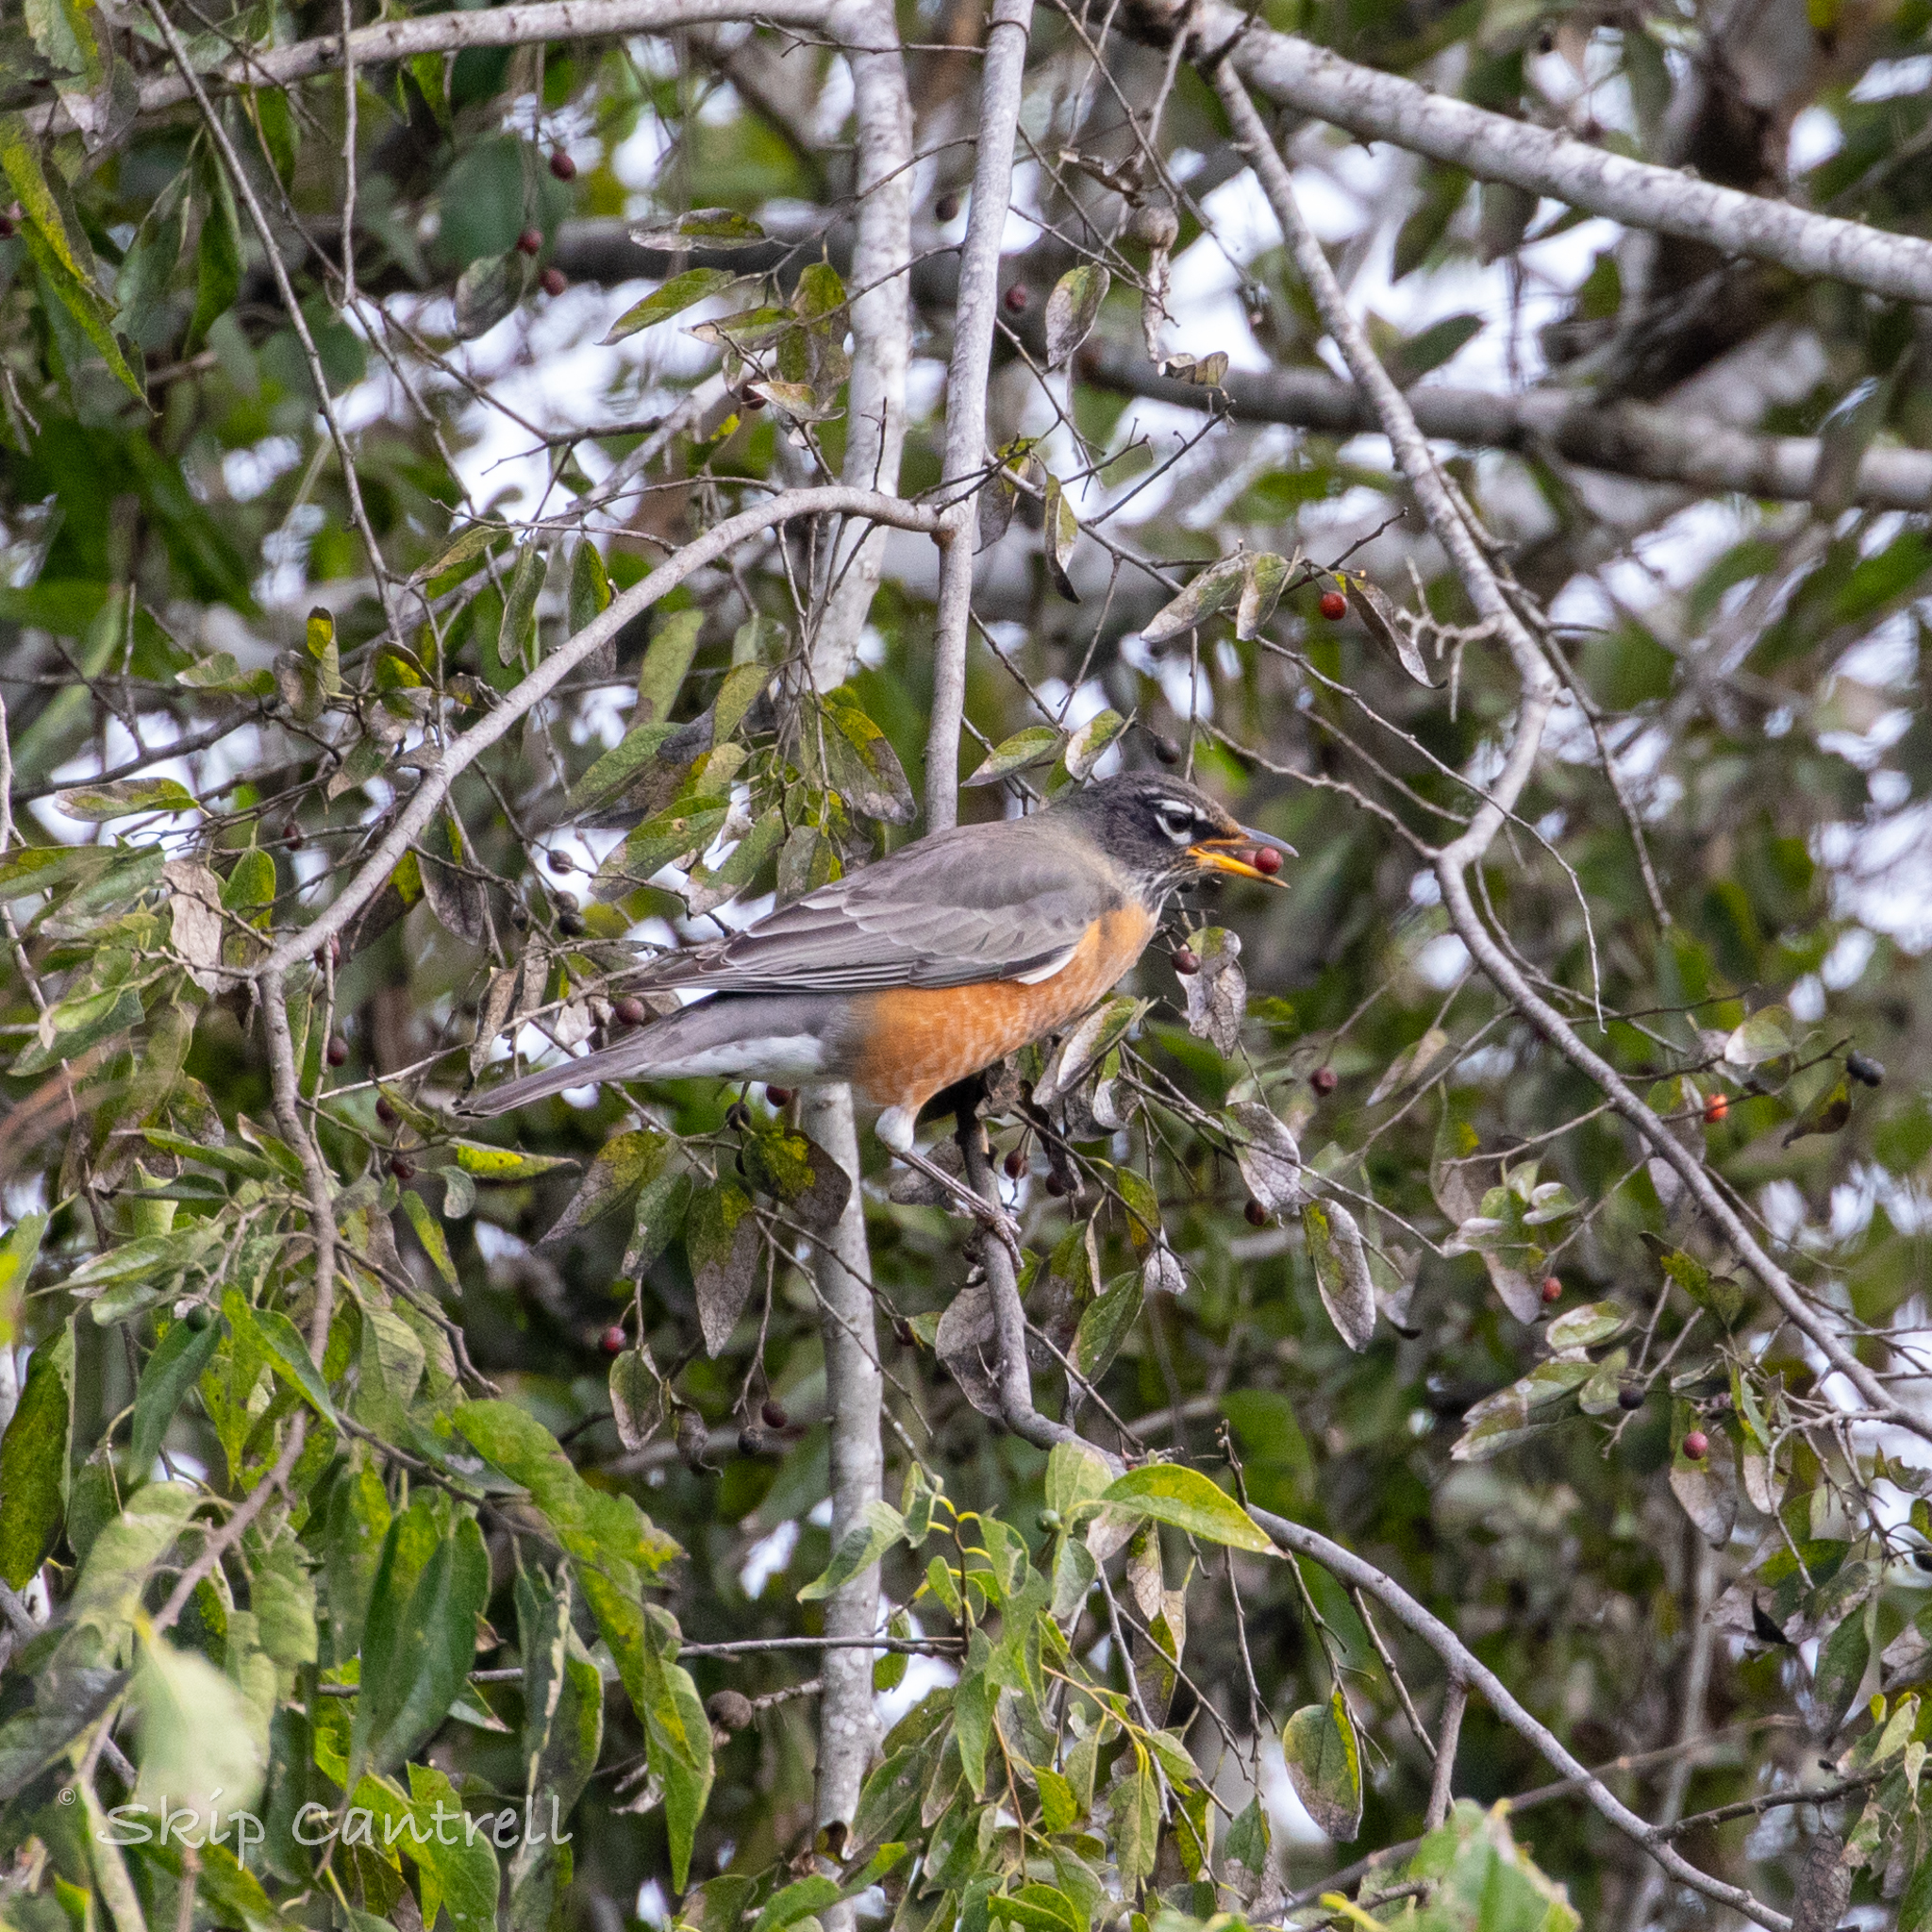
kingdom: Animalia
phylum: Chordata
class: Aves
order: Passeriformes
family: Turdidae
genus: Turdus
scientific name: Turdus migratorius
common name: American robin
